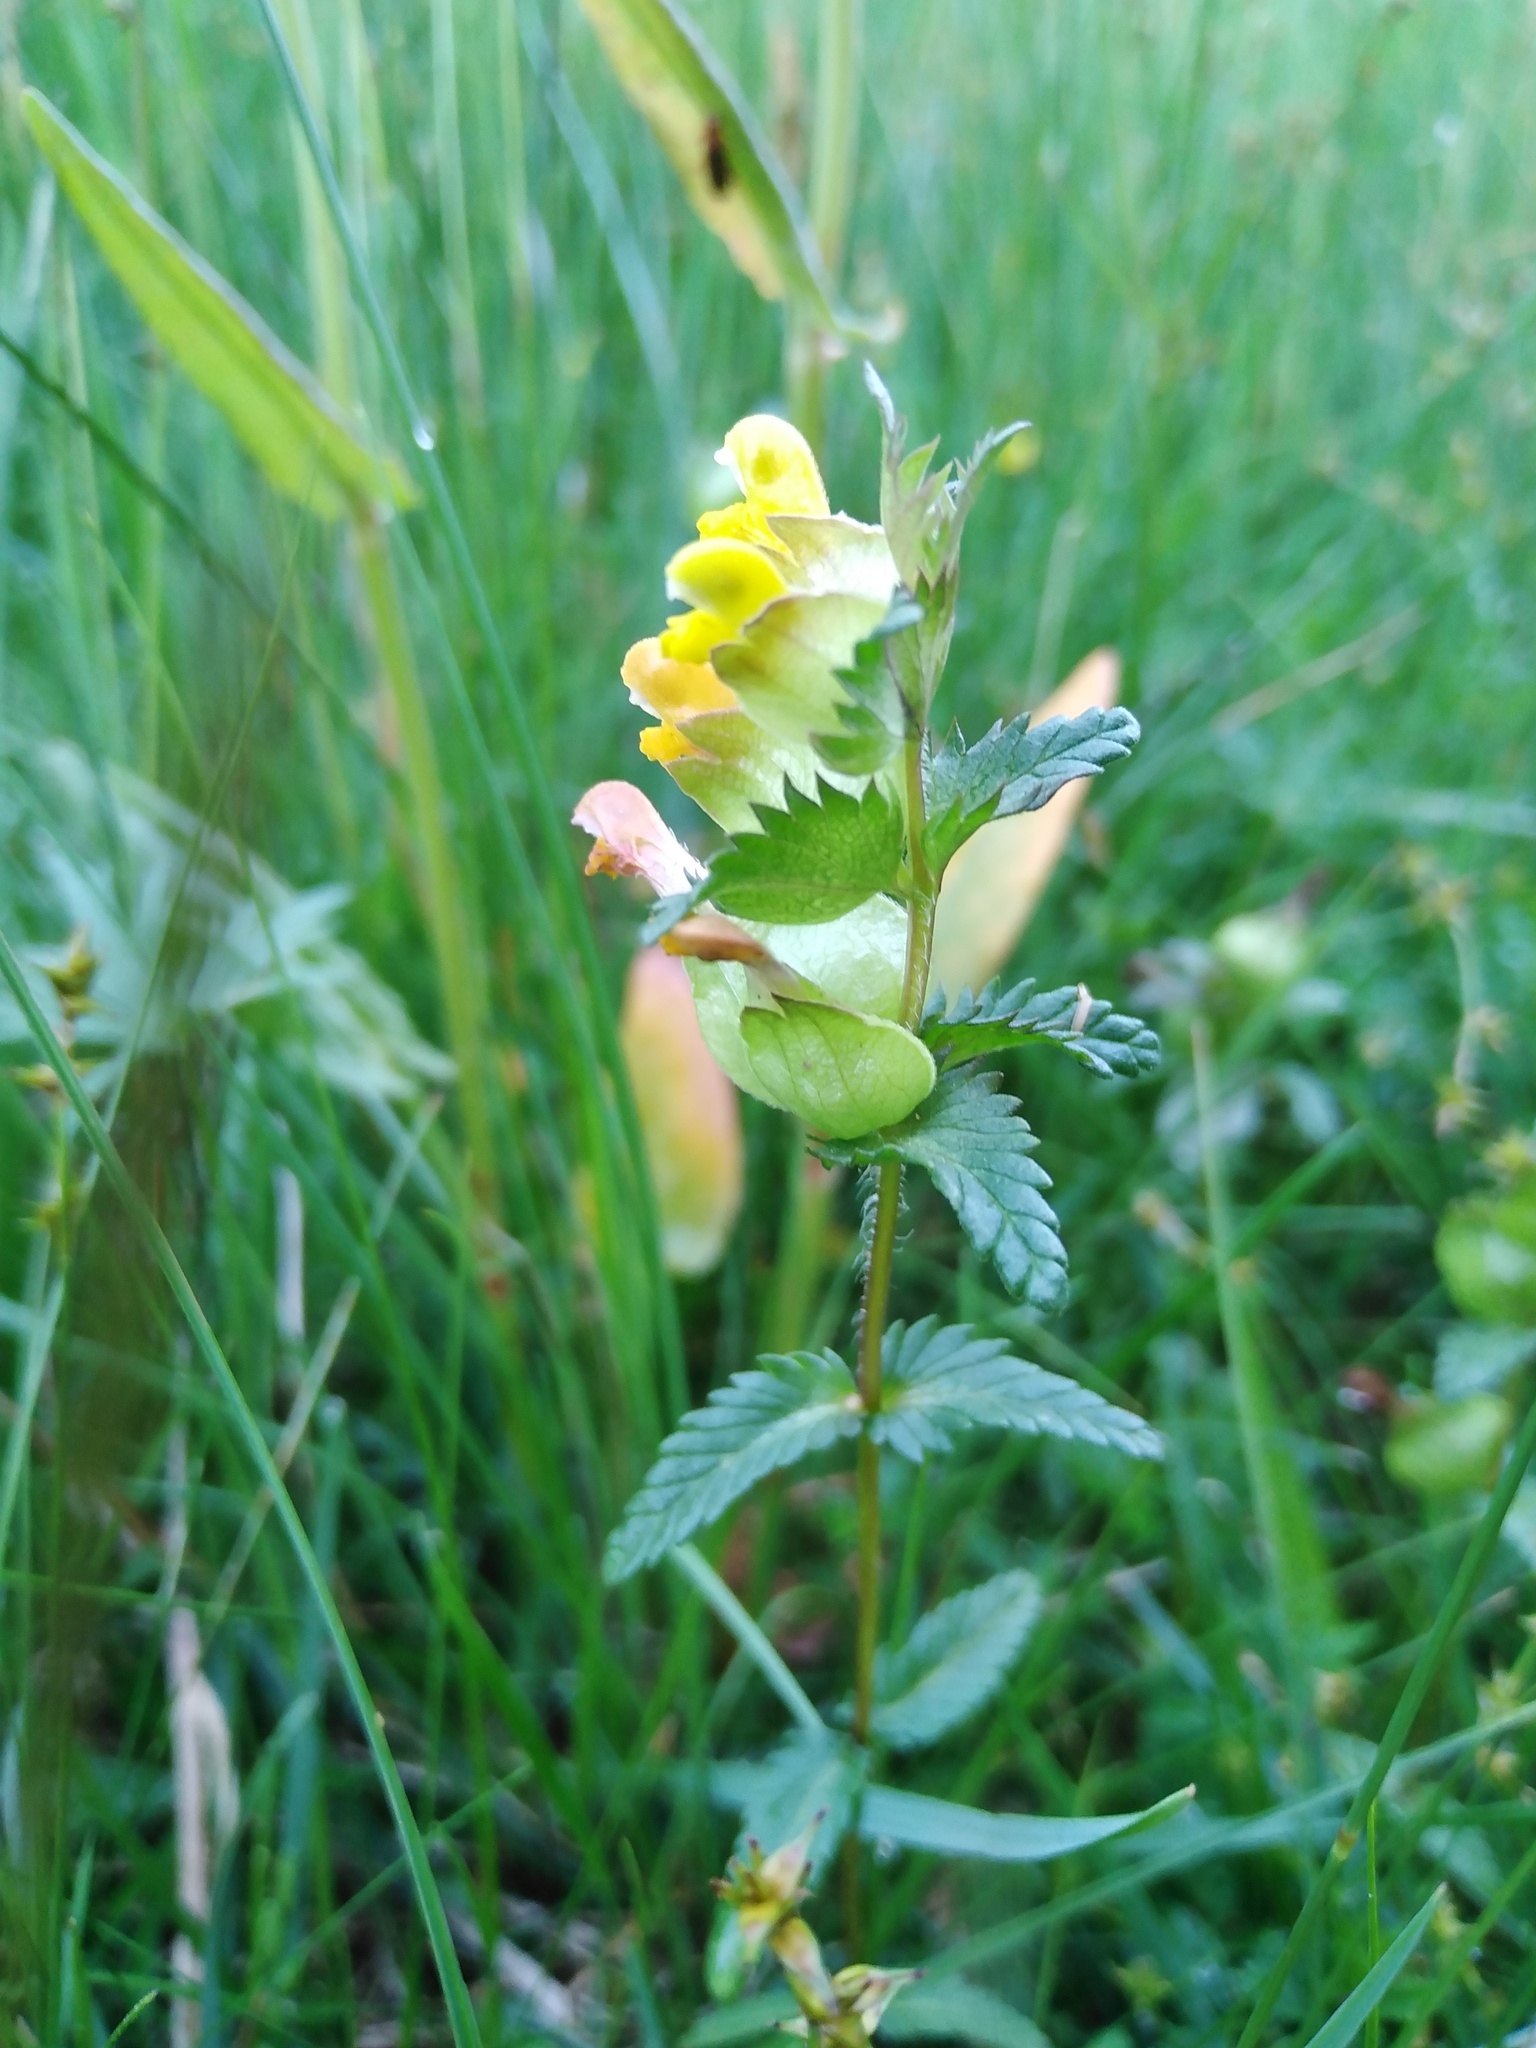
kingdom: Plantae
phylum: Tracheophyta
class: Magnoliopsida
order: Lamiales
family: Orobanchaceae
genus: Rhinanthus
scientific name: Rhinanthus minor
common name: Yellow-rattle
